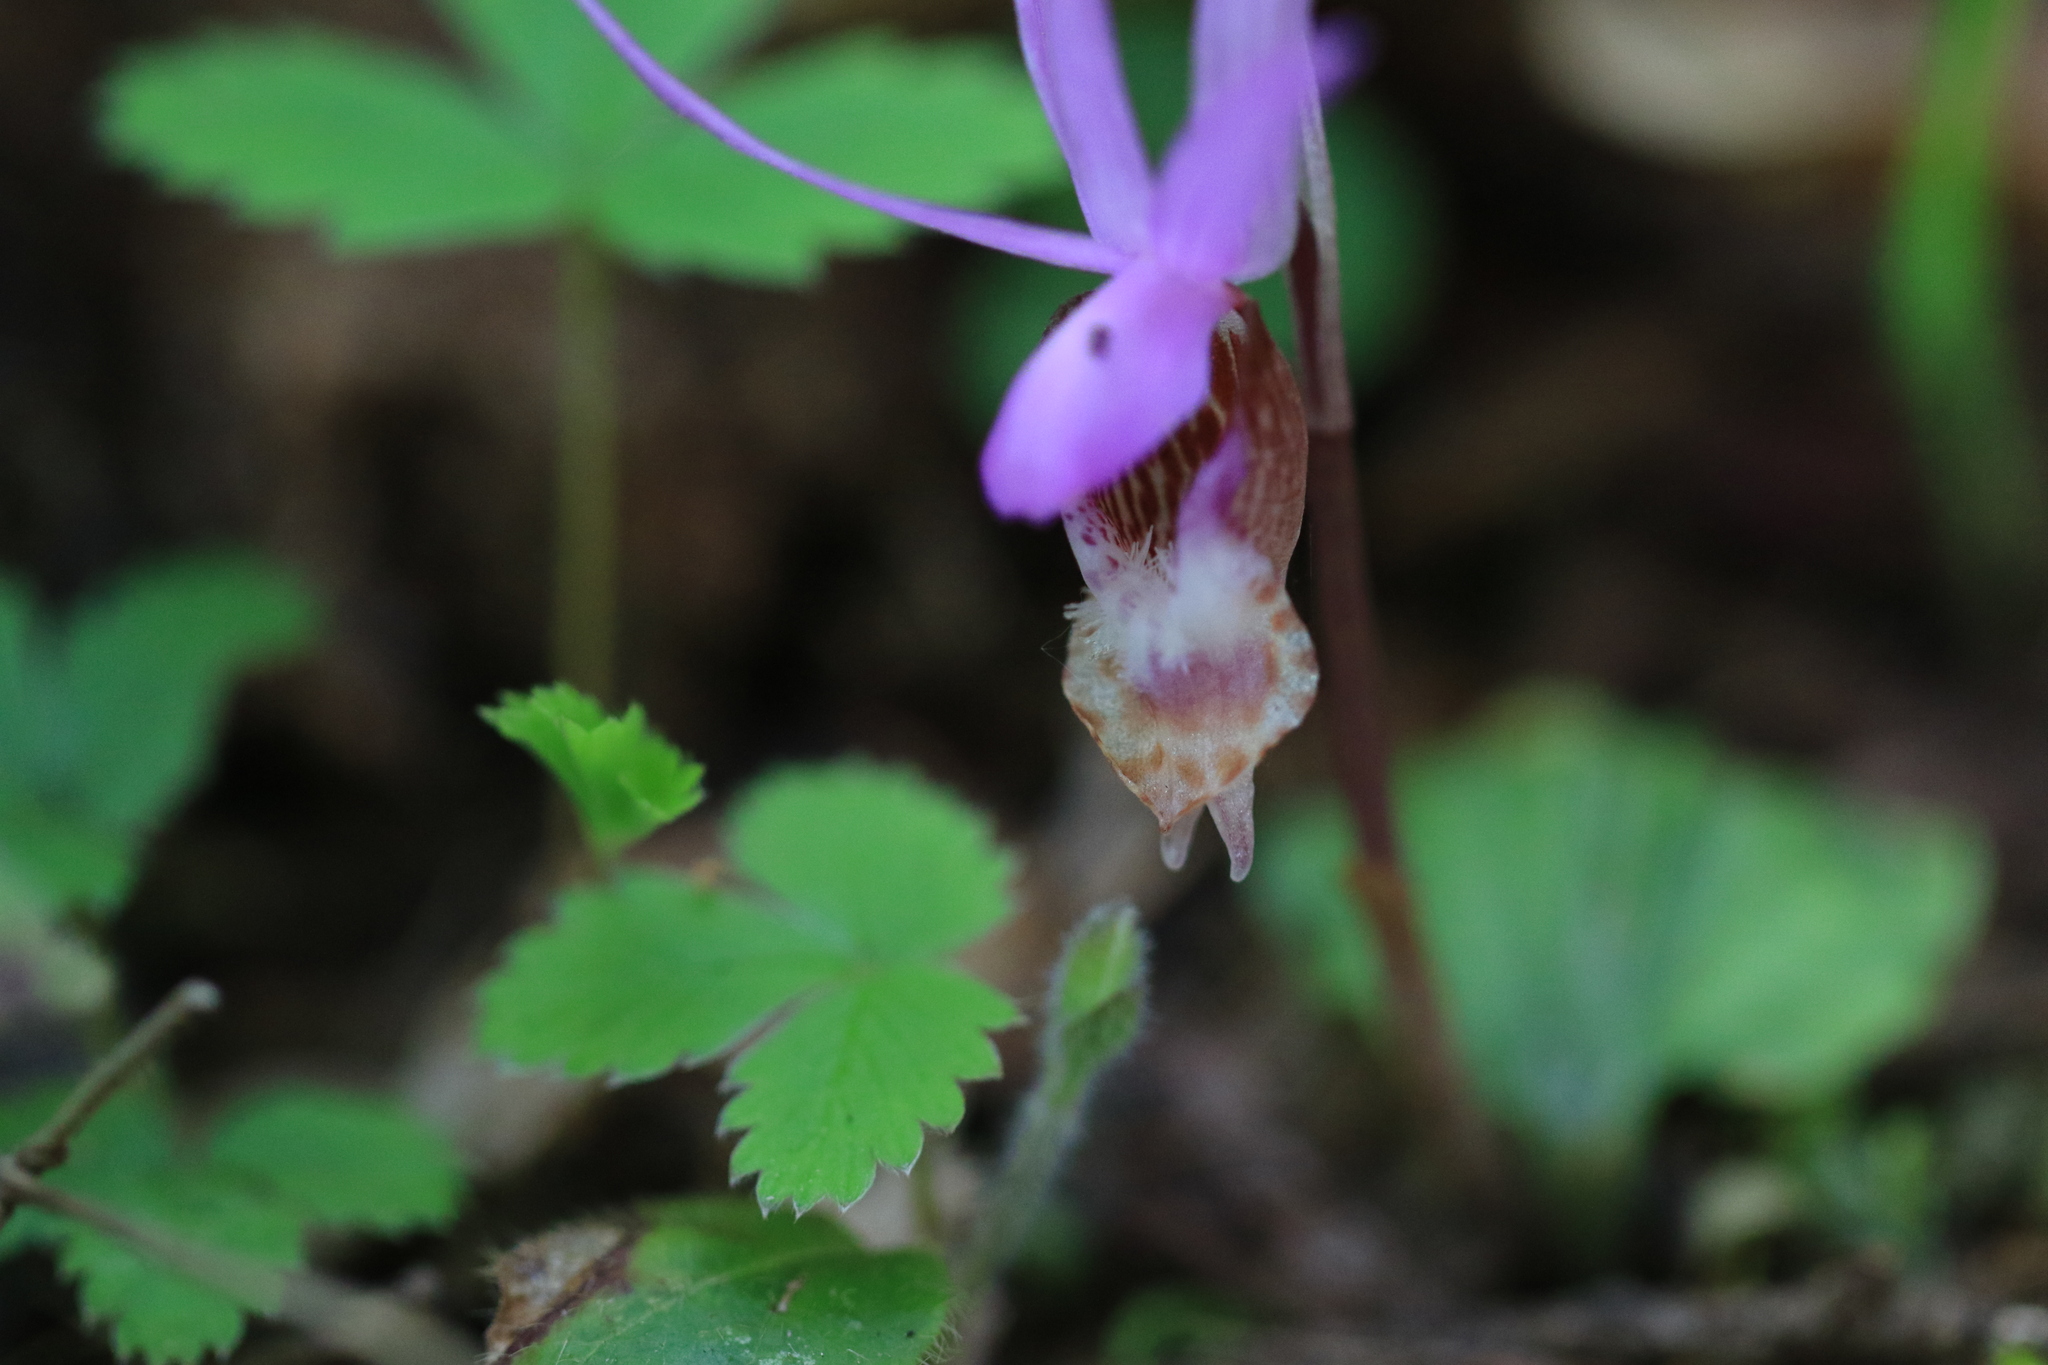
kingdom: Plantae
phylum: Tracheophyta
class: Liliopsida
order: Asparagales
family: Orchidaceae
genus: Calypso
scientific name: Calypso bulbosa
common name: Calypso
